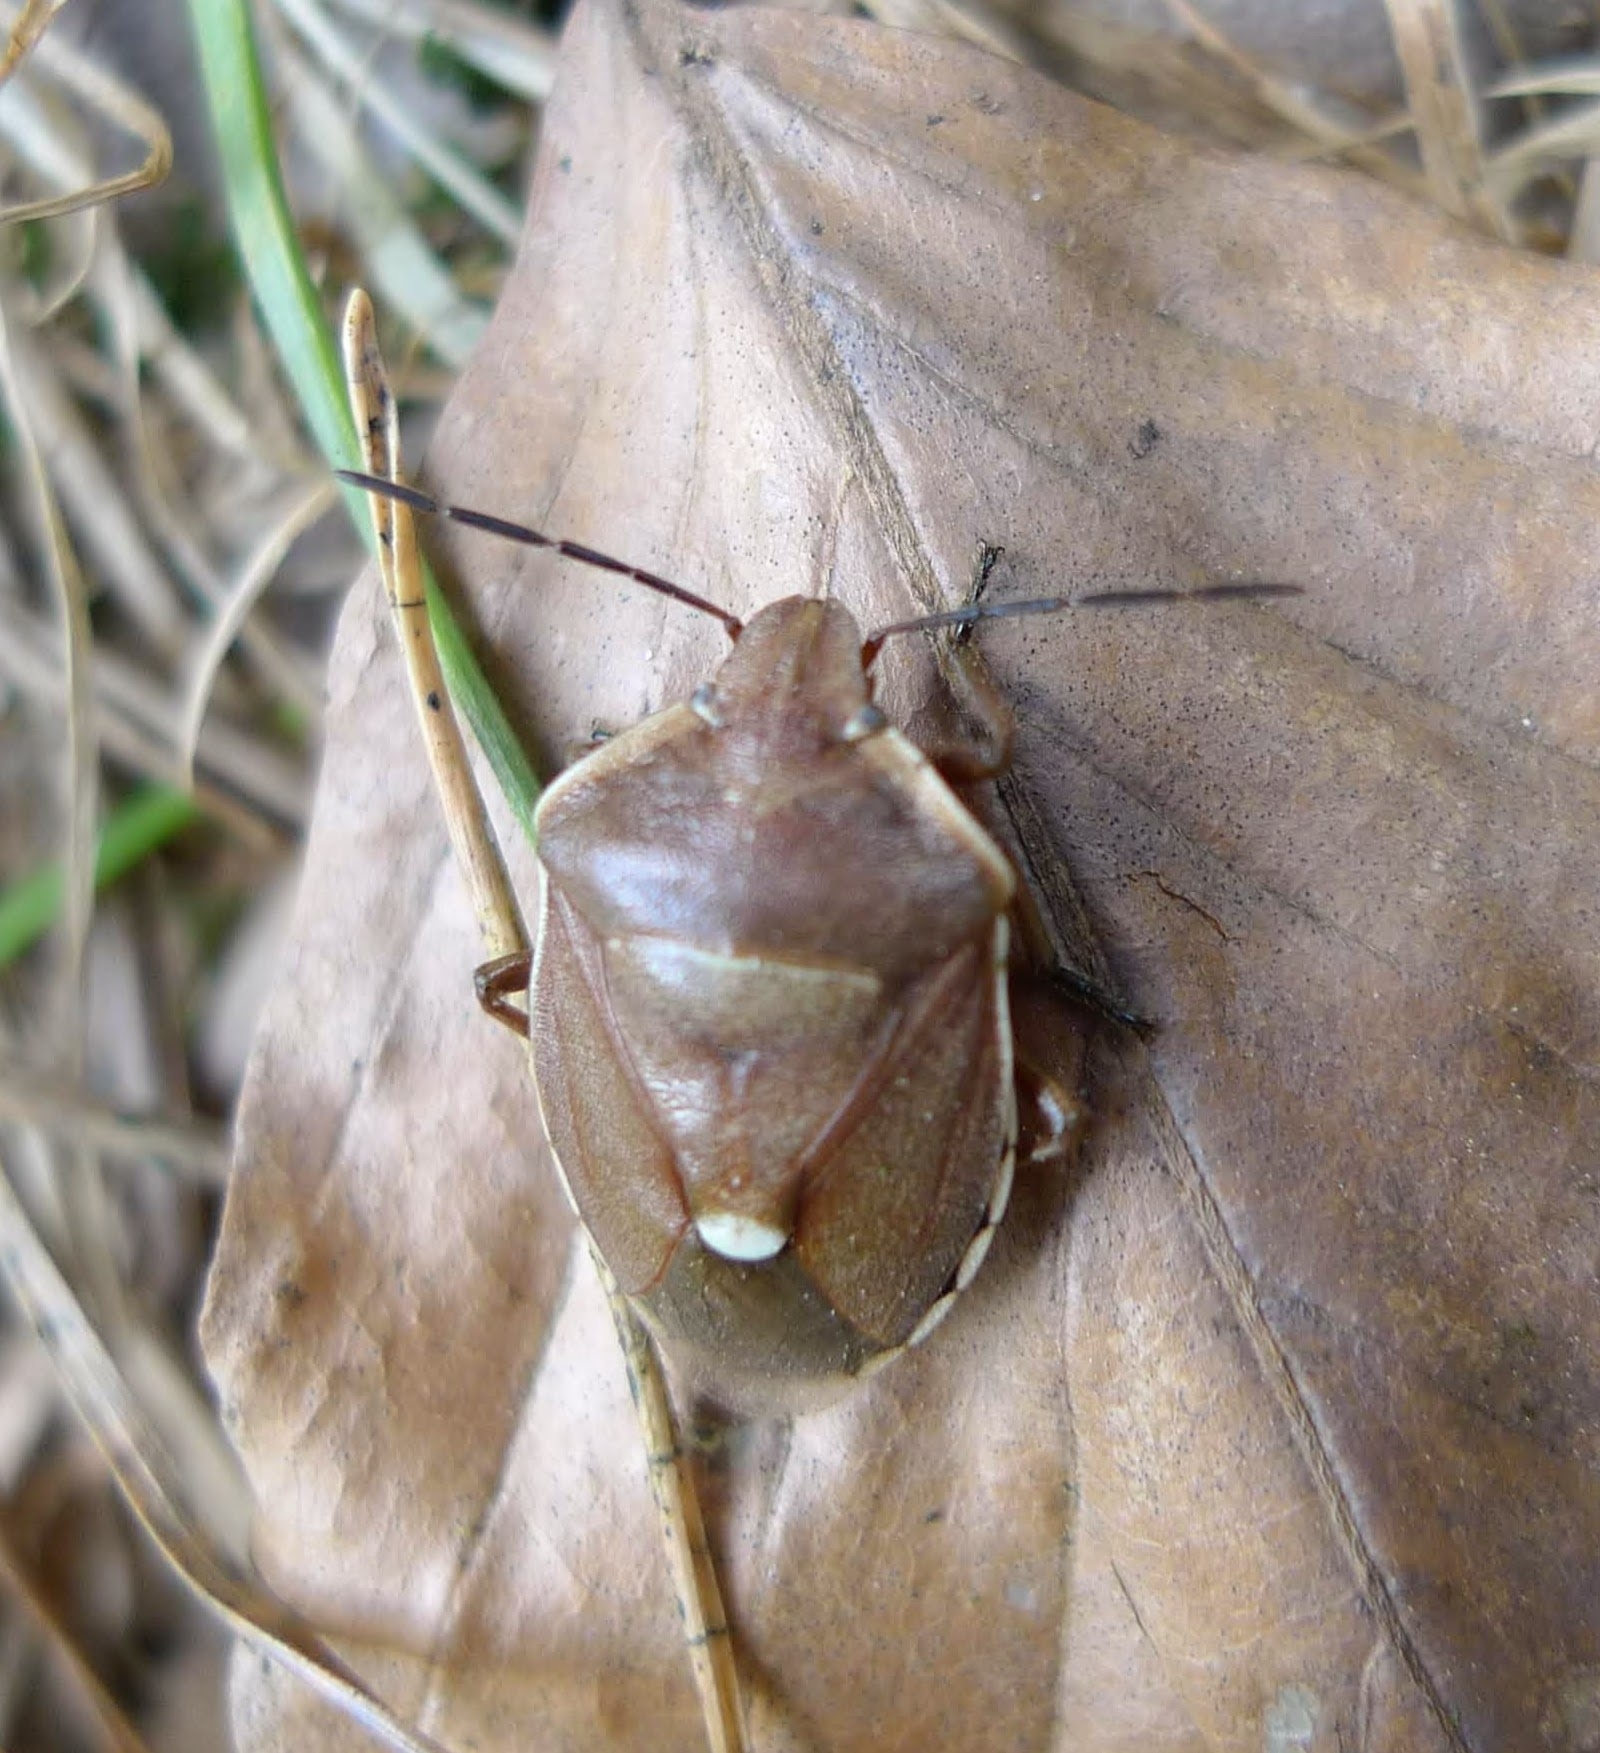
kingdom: Animalia
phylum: Arthropoda
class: Insecta
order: Hemiptera
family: Pentatomidae
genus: Chlorochroa
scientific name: Chlorochroa pinicola
